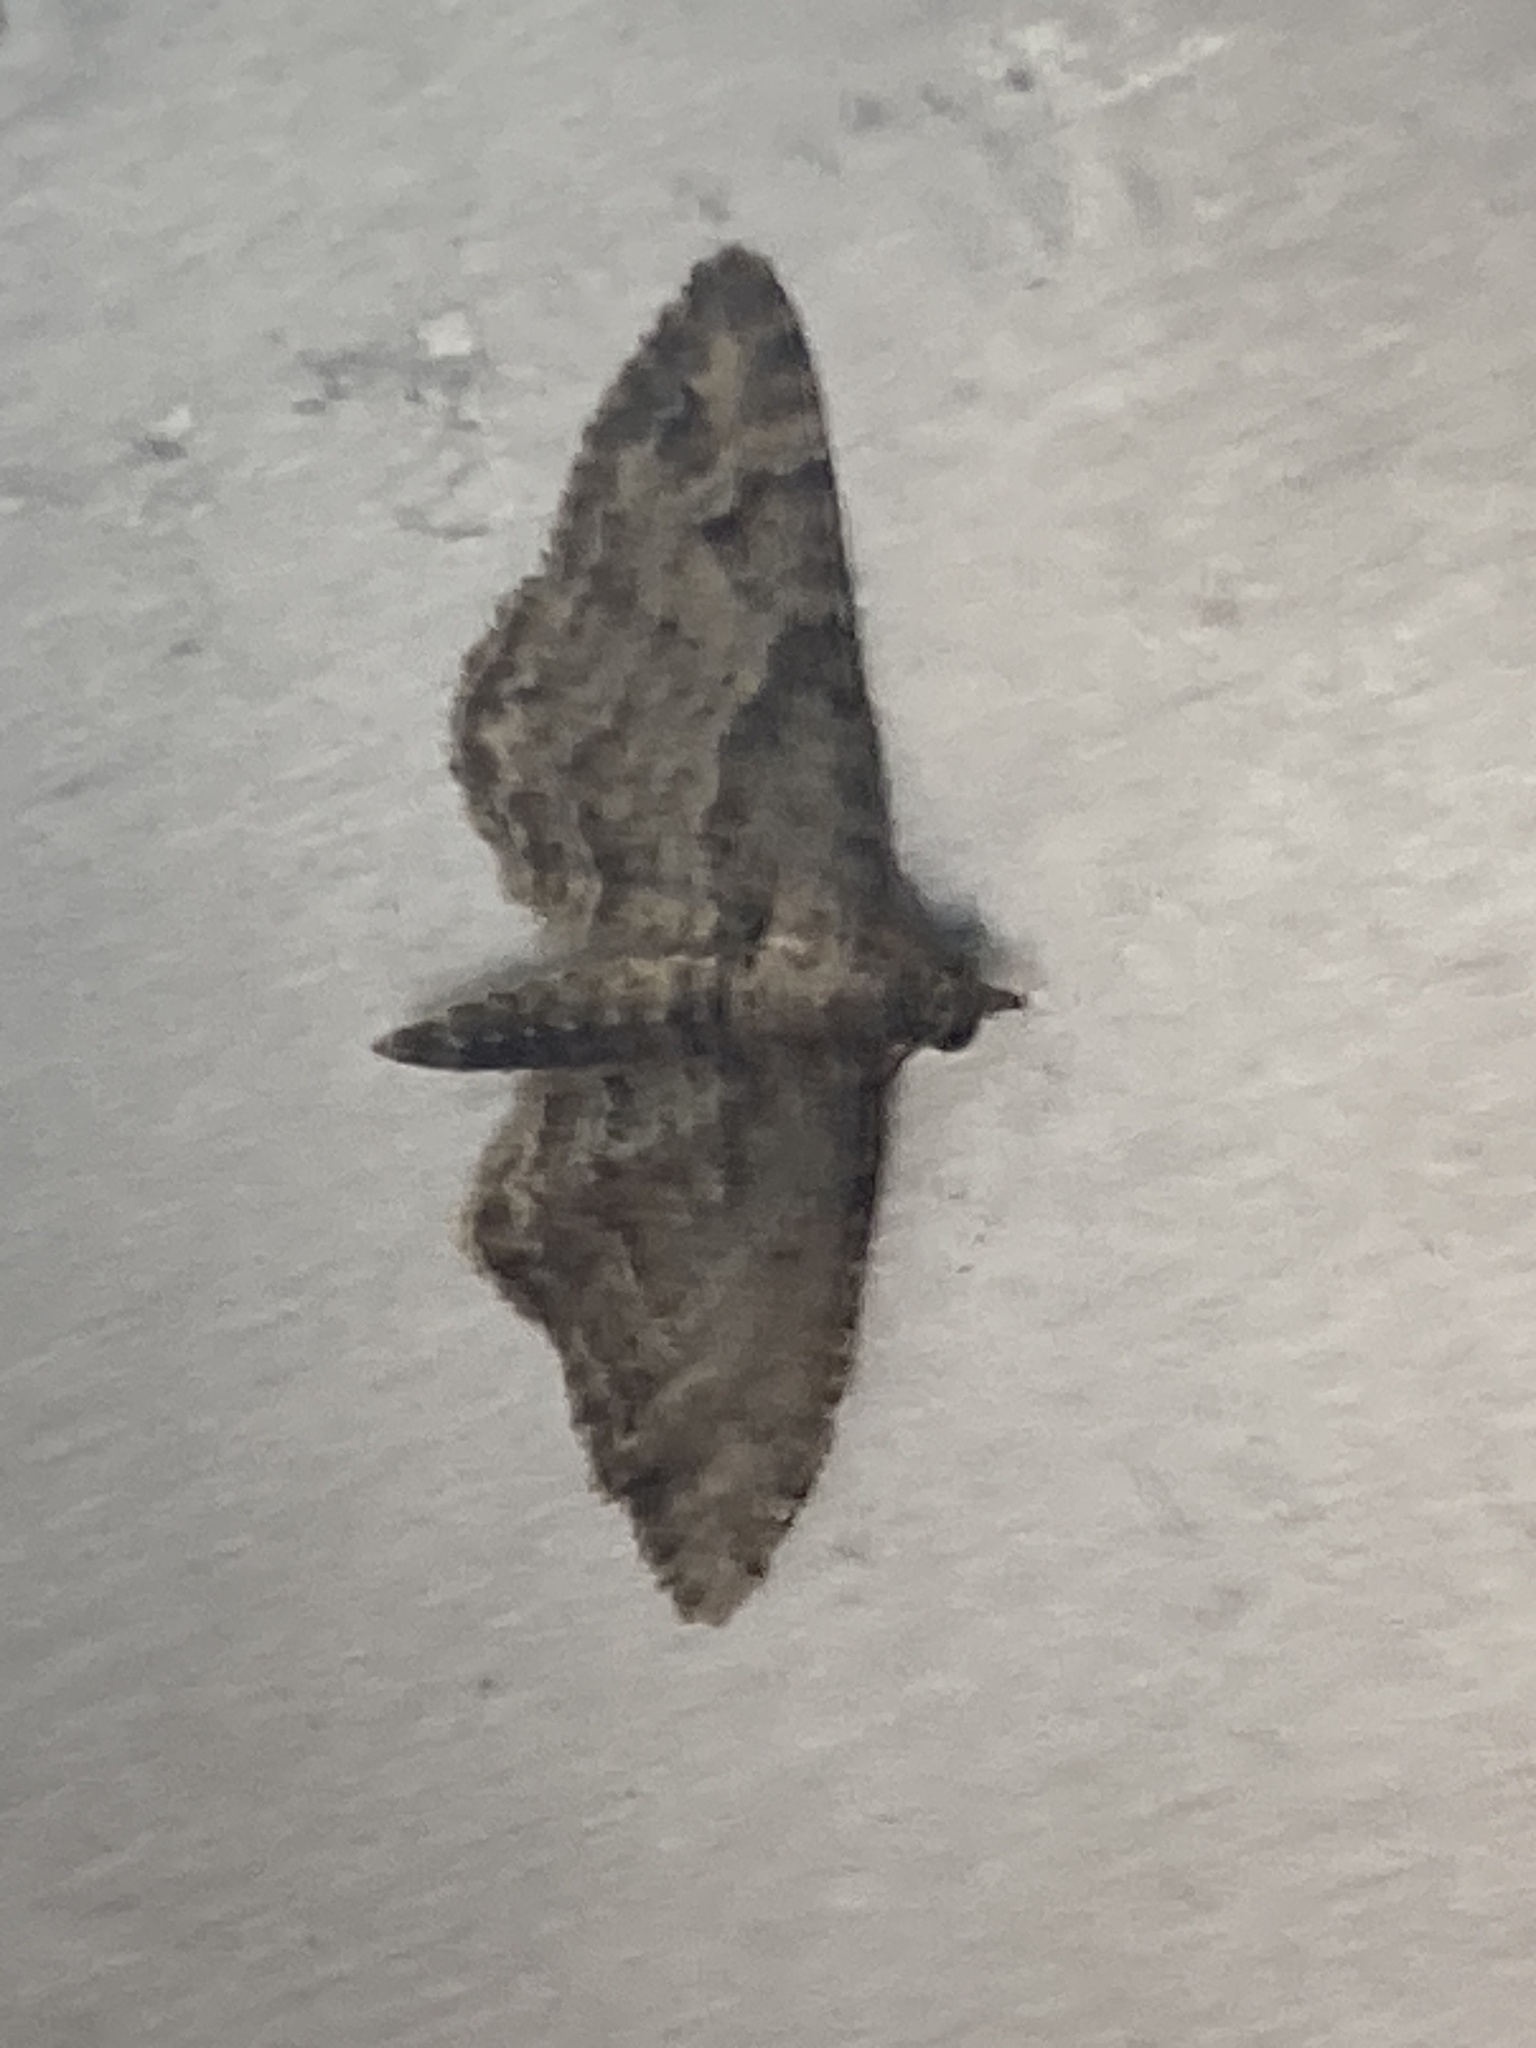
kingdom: Animalia
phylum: Arthropoda
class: Insecta
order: Lepidoptera
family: Geometridae
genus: Gymnoscelis
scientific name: Gymnoscelis rufifasciata
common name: Double-striped pug
